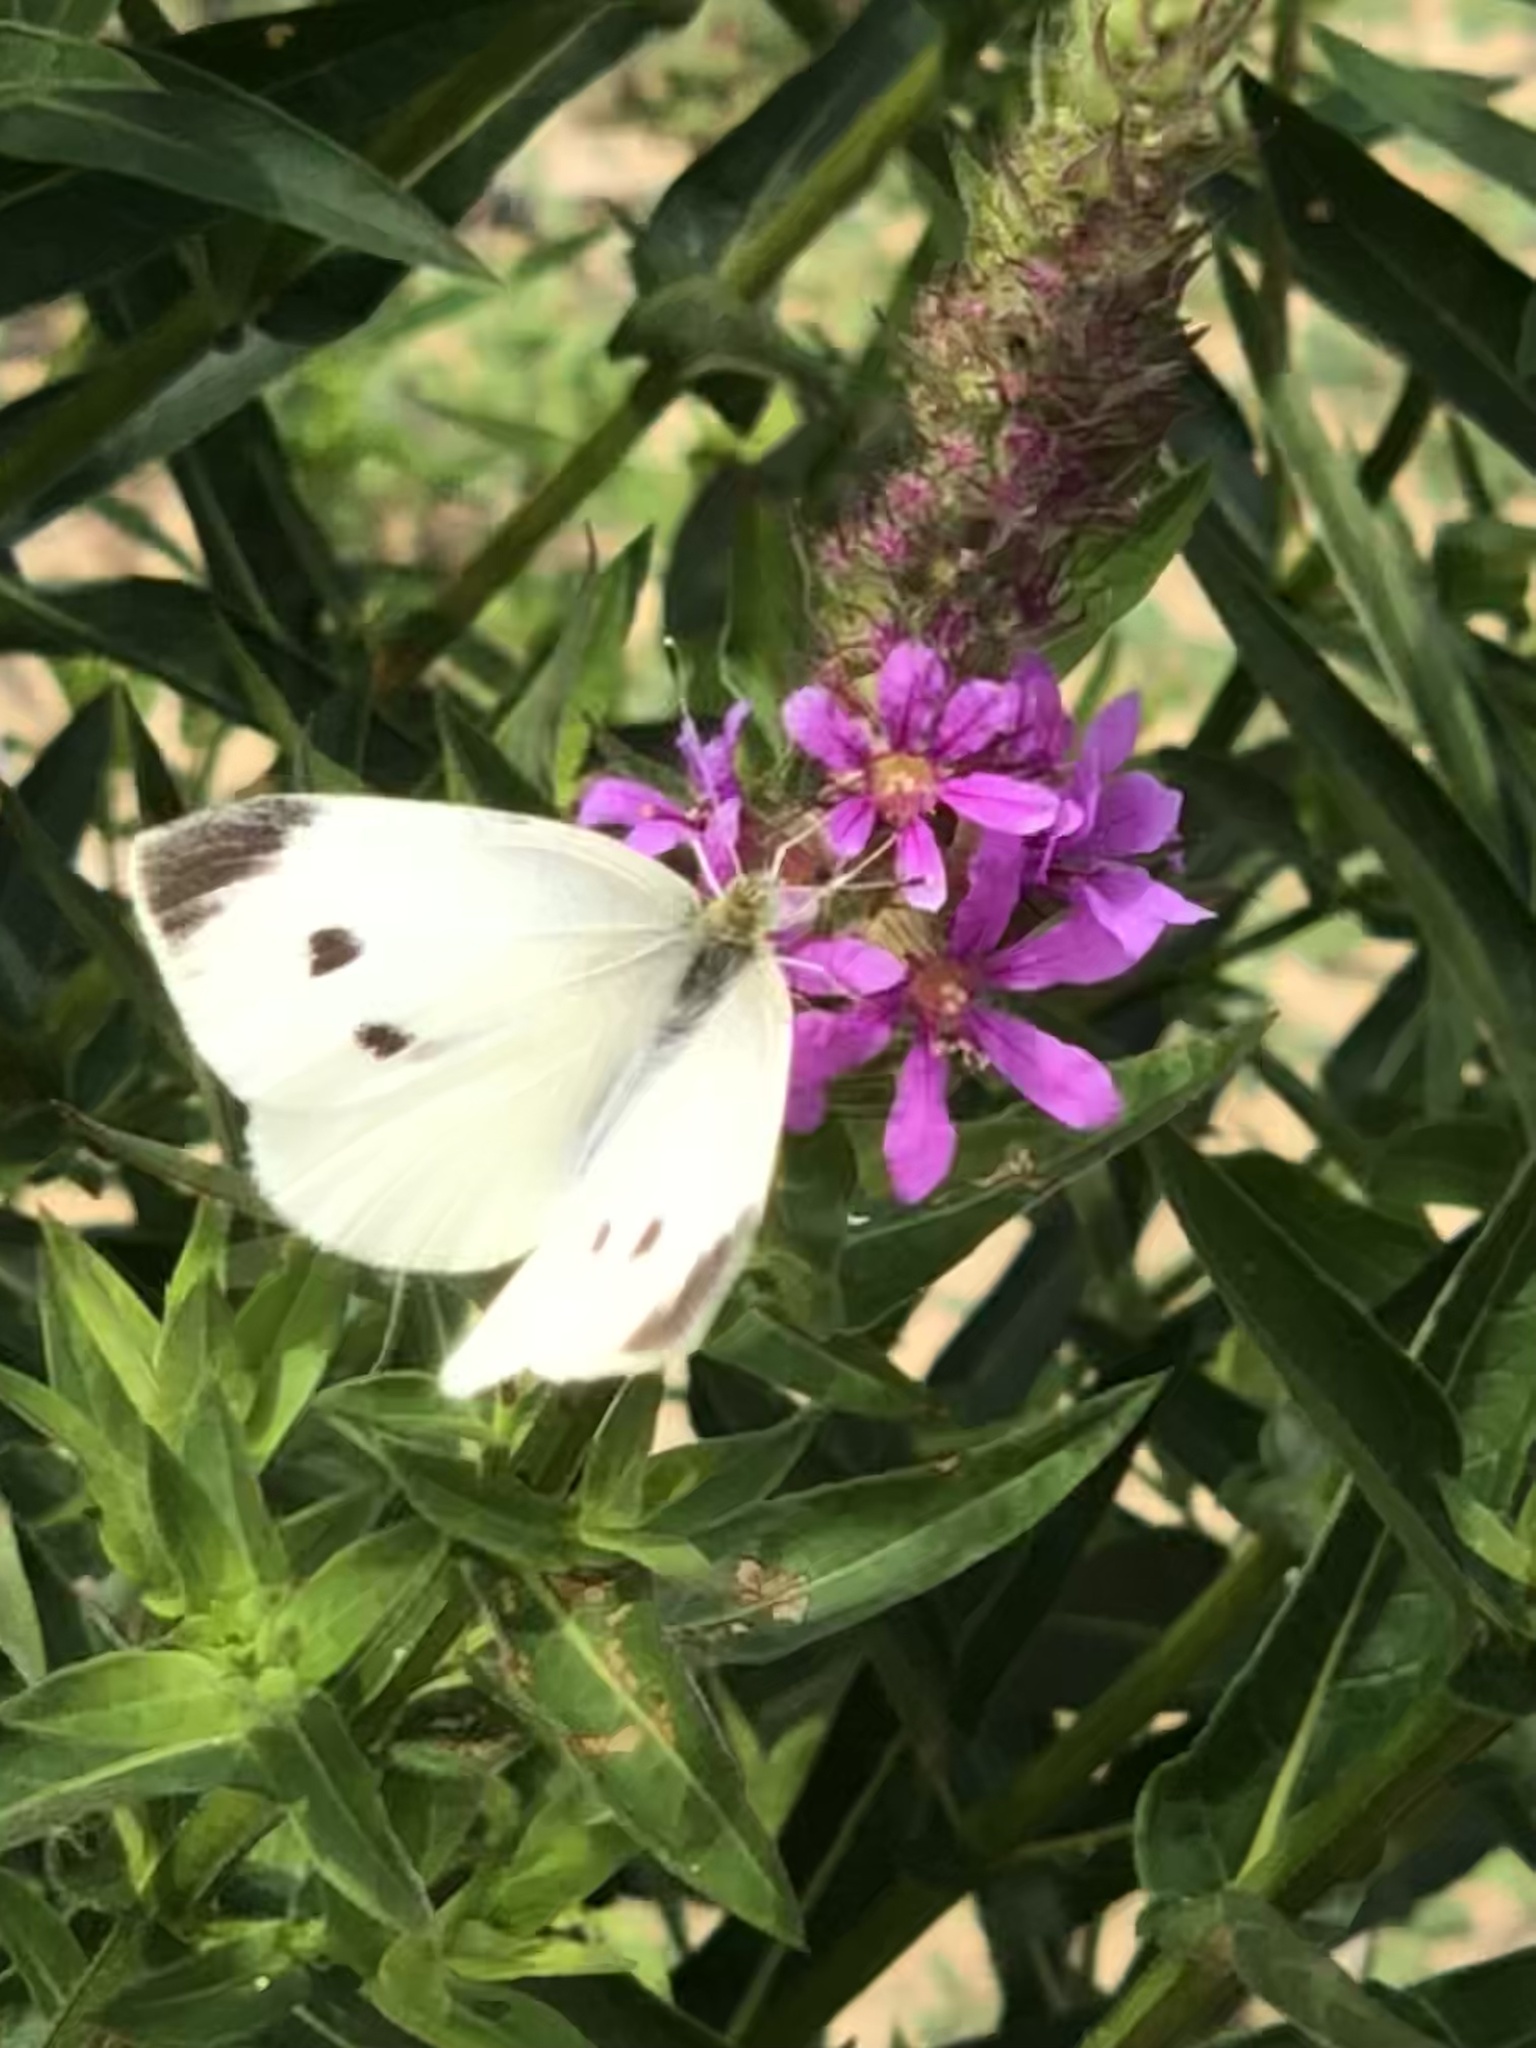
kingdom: Animalia
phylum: Arthropoda
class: Insecta
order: Lepidoptera
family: Pieridae
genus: Pieris
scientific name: Pieris rapae
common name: Small white
